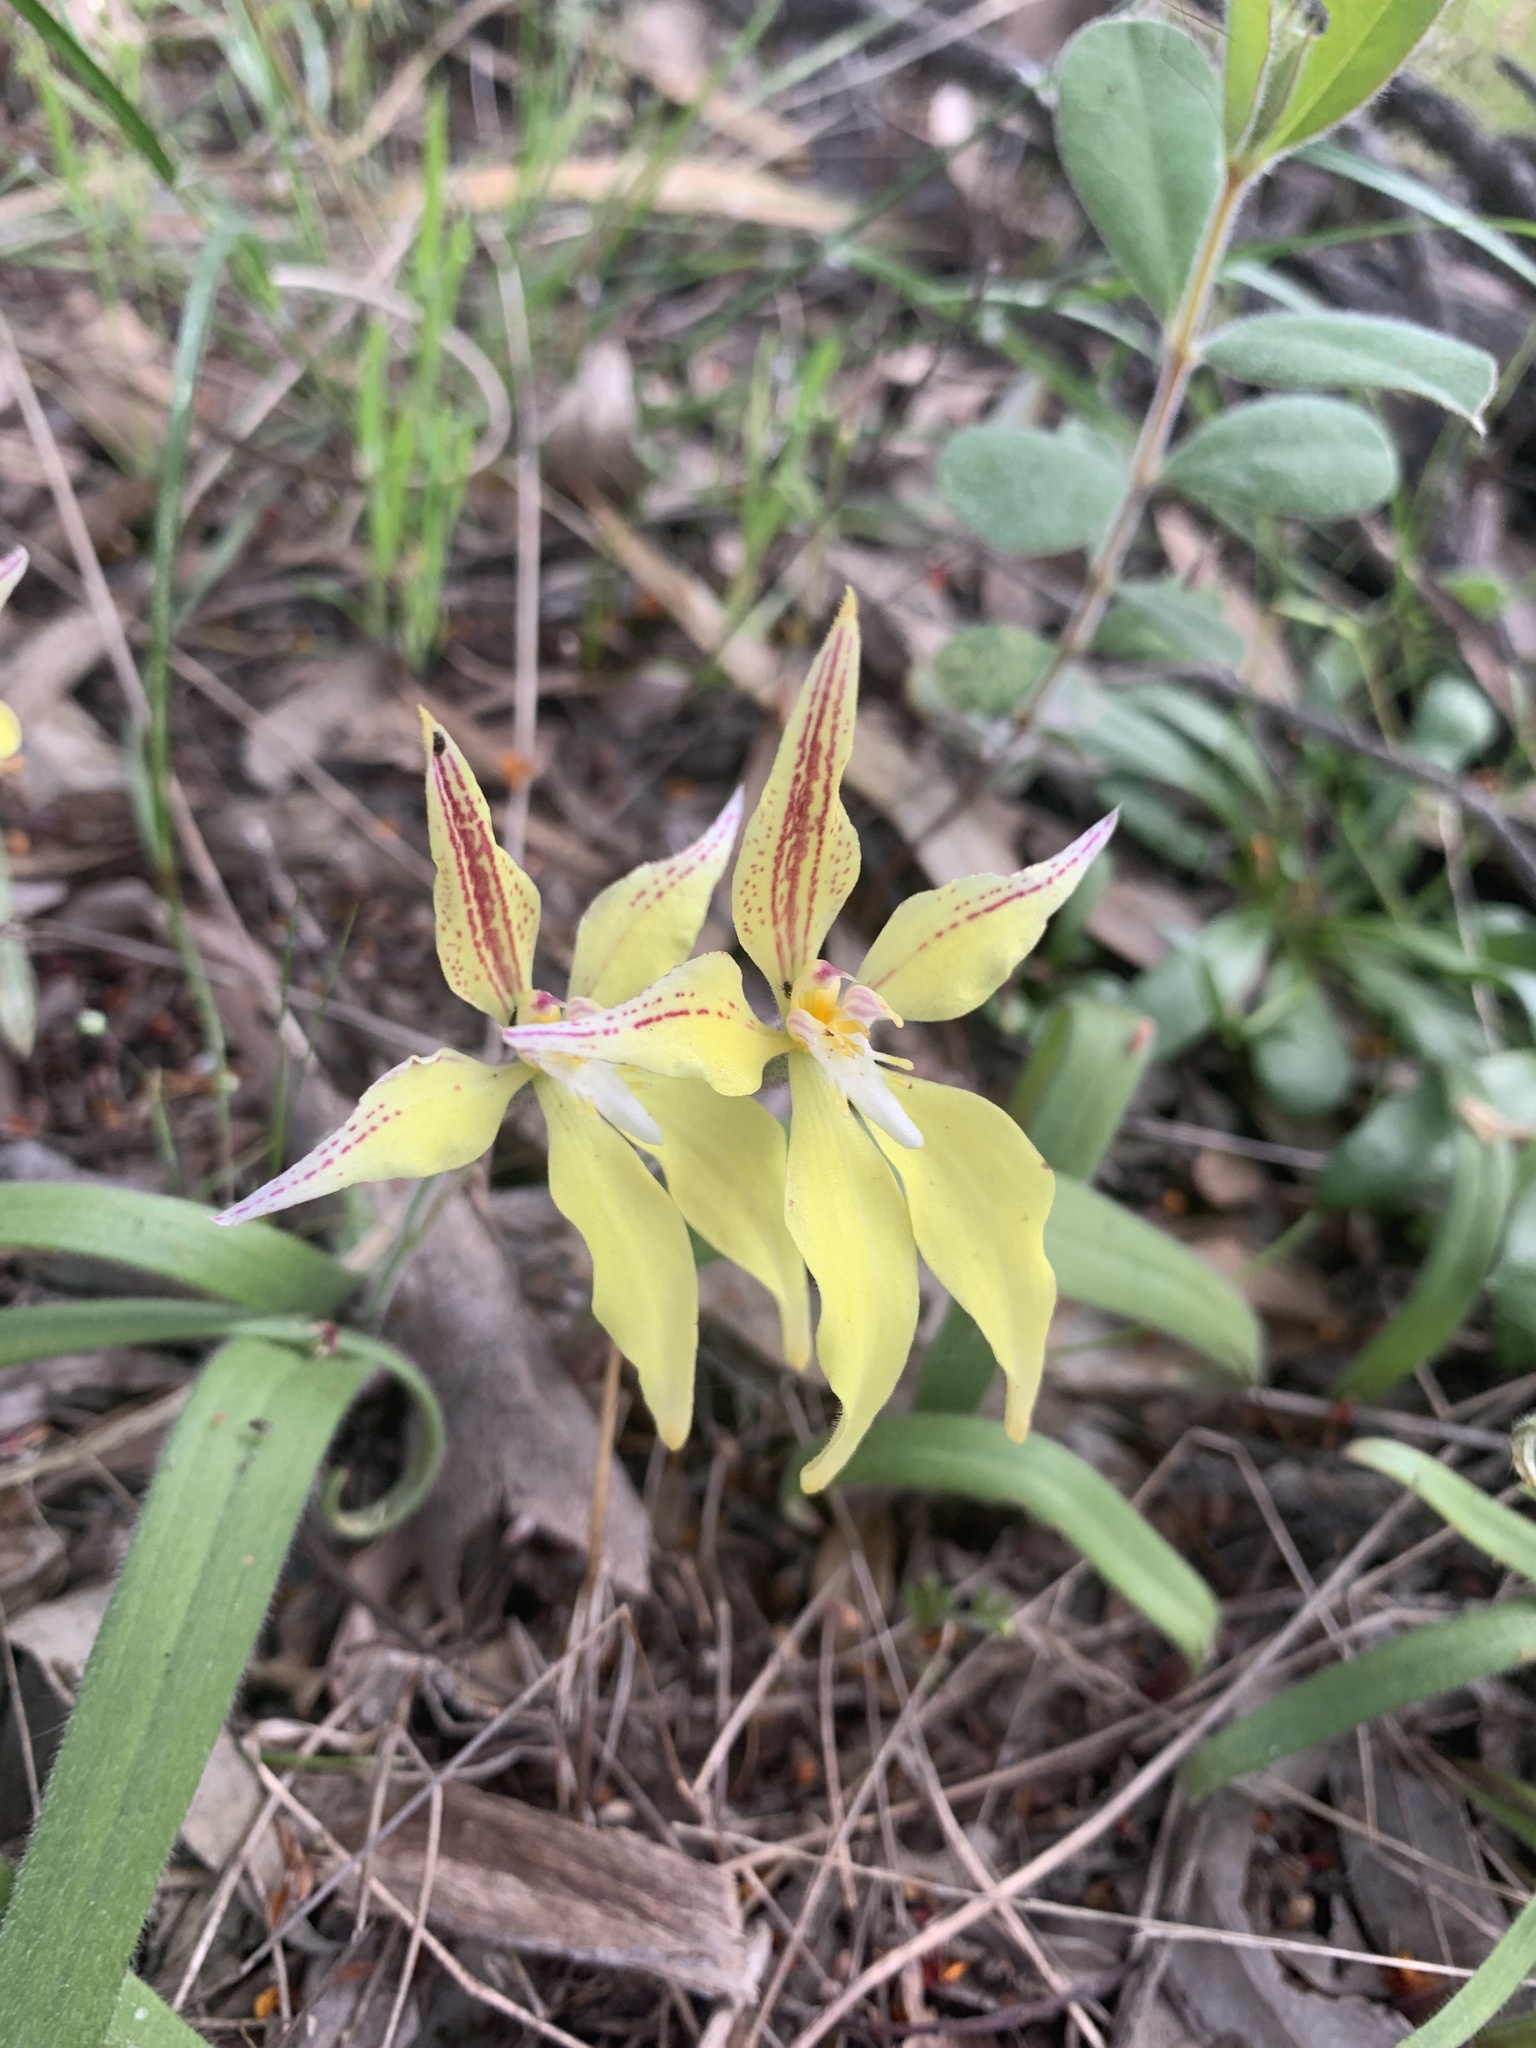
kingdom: Plantae
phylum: Tracheophyta
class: Liliopsida
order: Asparagales
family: Orchidaceae
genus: Caladenia
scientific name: Caladenia flava
